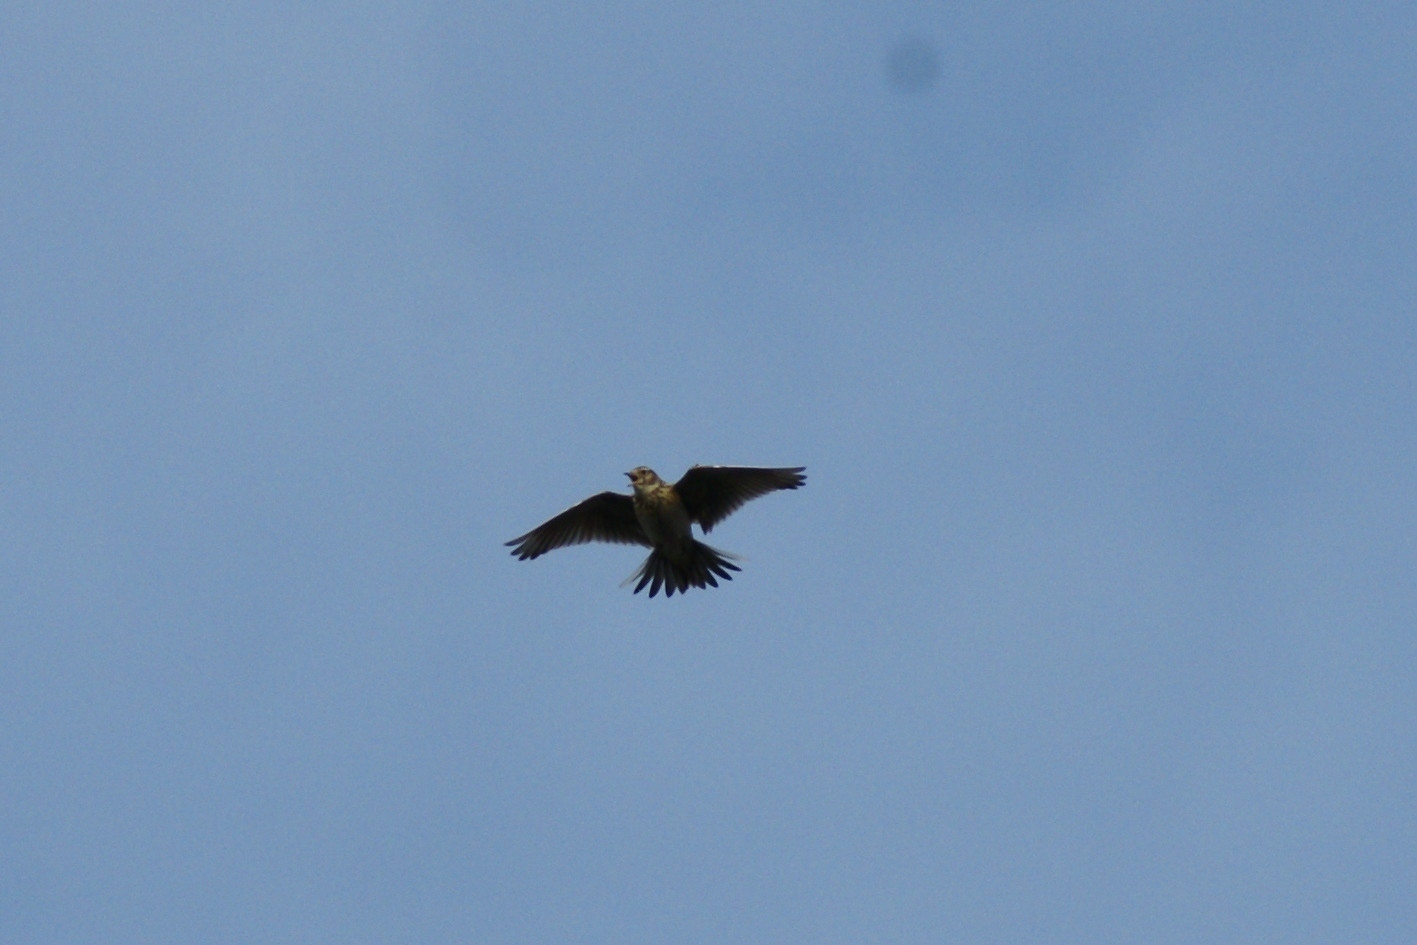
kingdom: Animalia
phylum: Chordata
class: Aves
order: Passeriformes
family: Alaudidae
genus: Alauda
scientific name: Alauda arvensis
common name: Eurasian skylark
